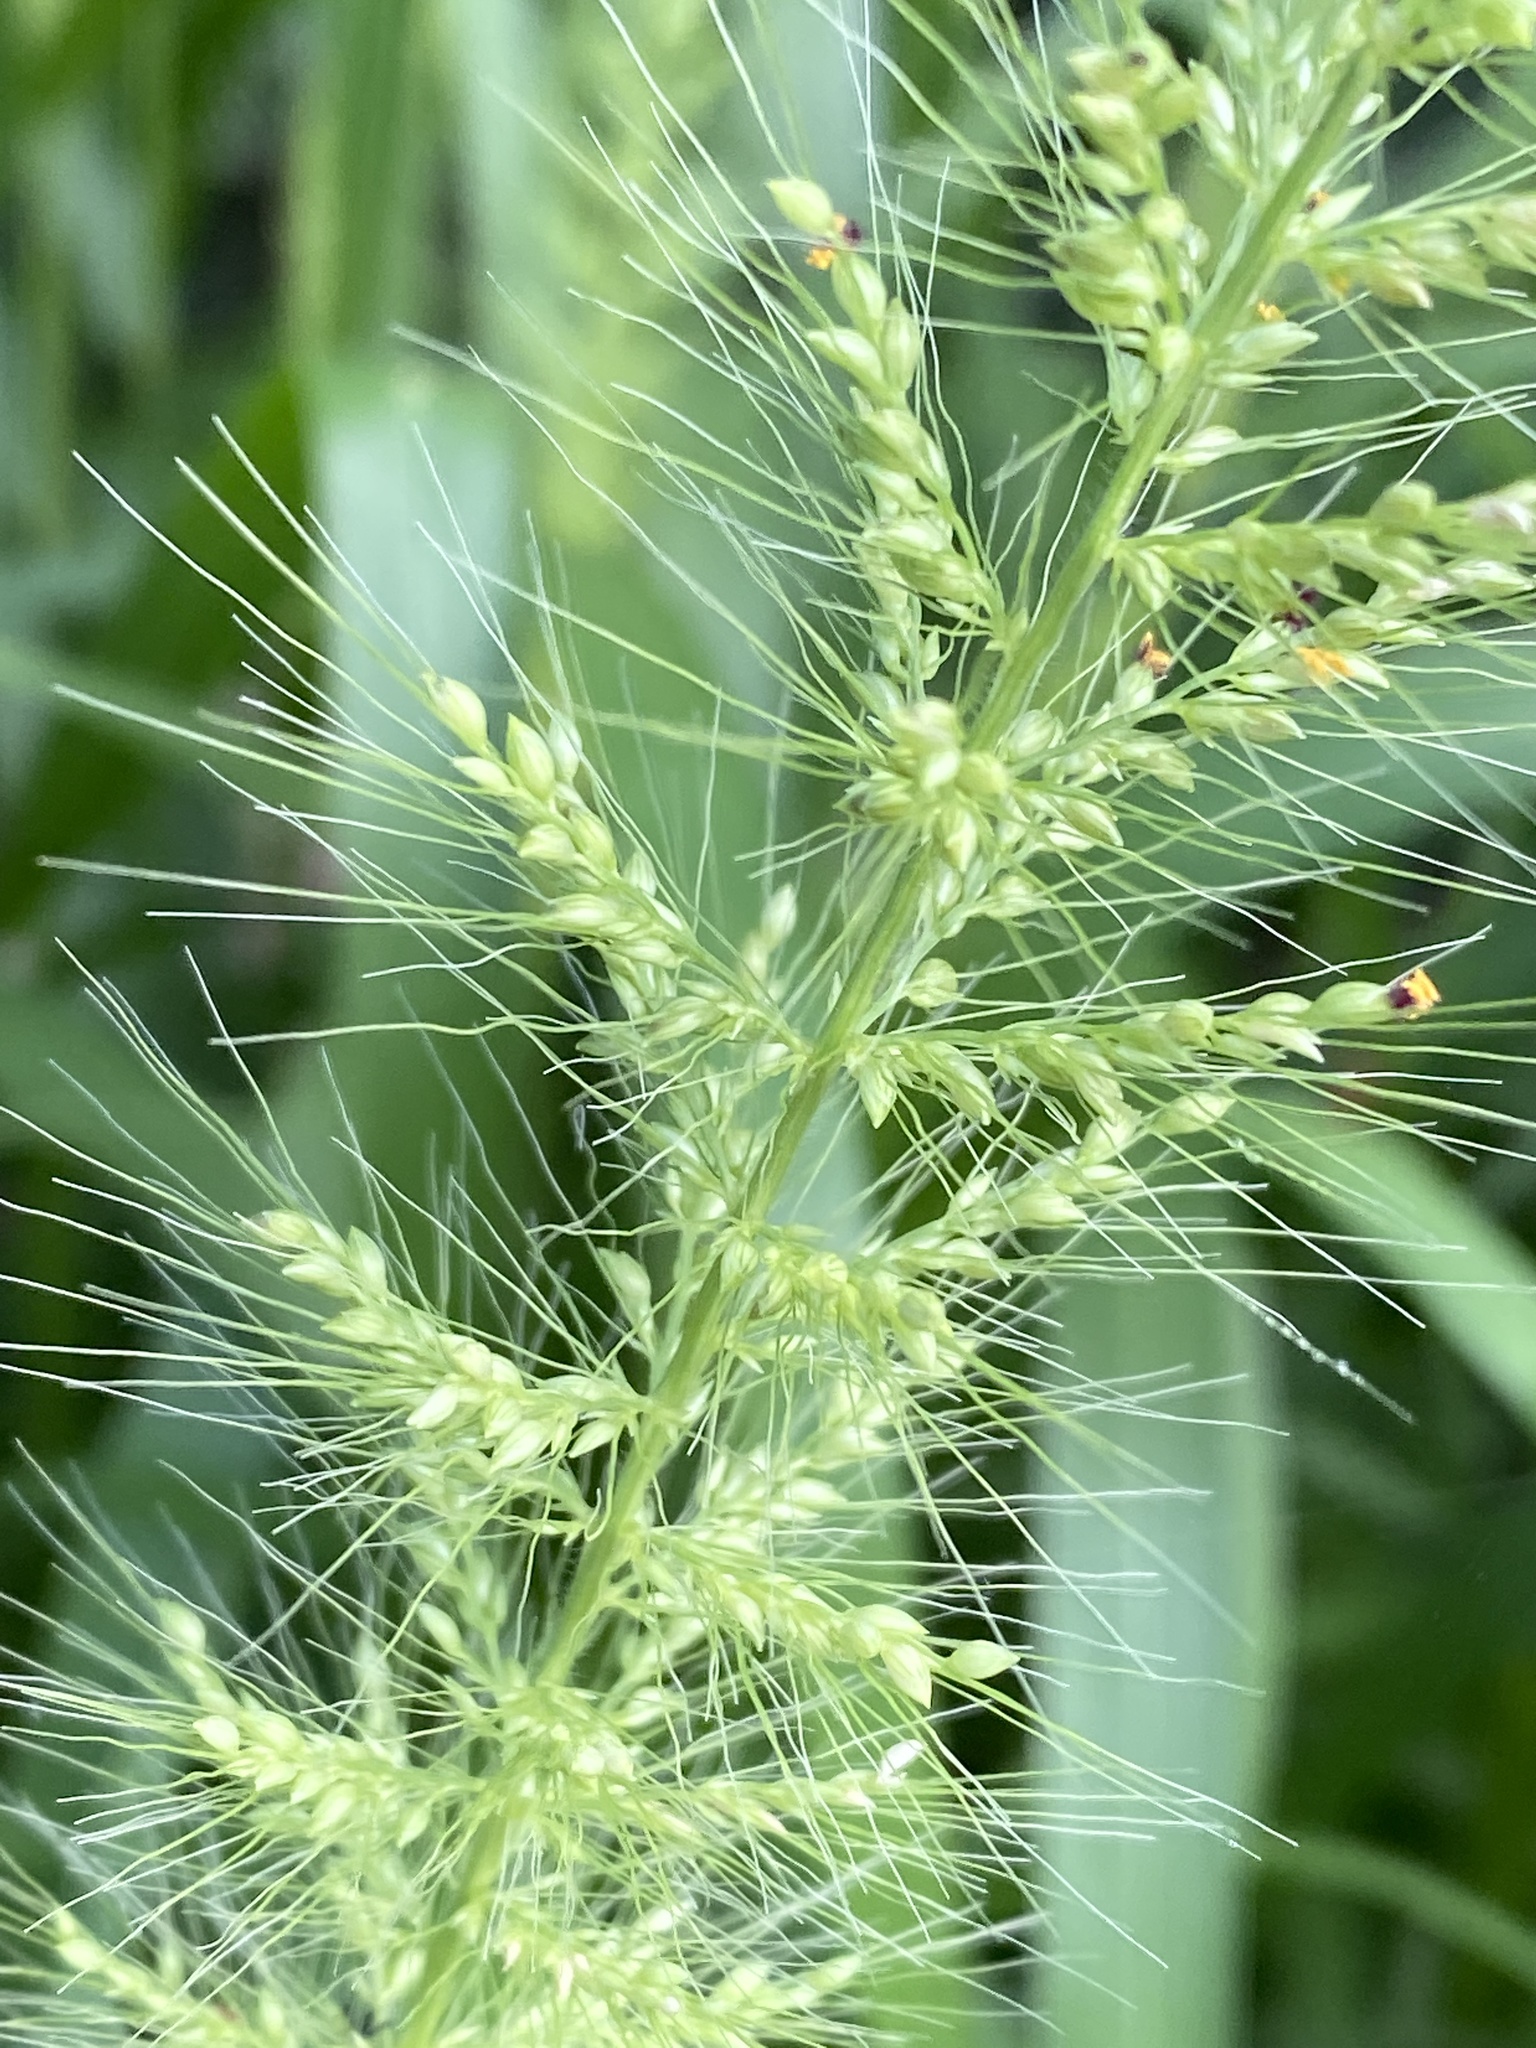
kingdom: Plantae
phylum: Tracheophyta
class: Liliopsida
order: Poales
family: Poaceae
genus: Setaria
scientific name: Setaria scheelei
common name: Southwestern bristle grass
